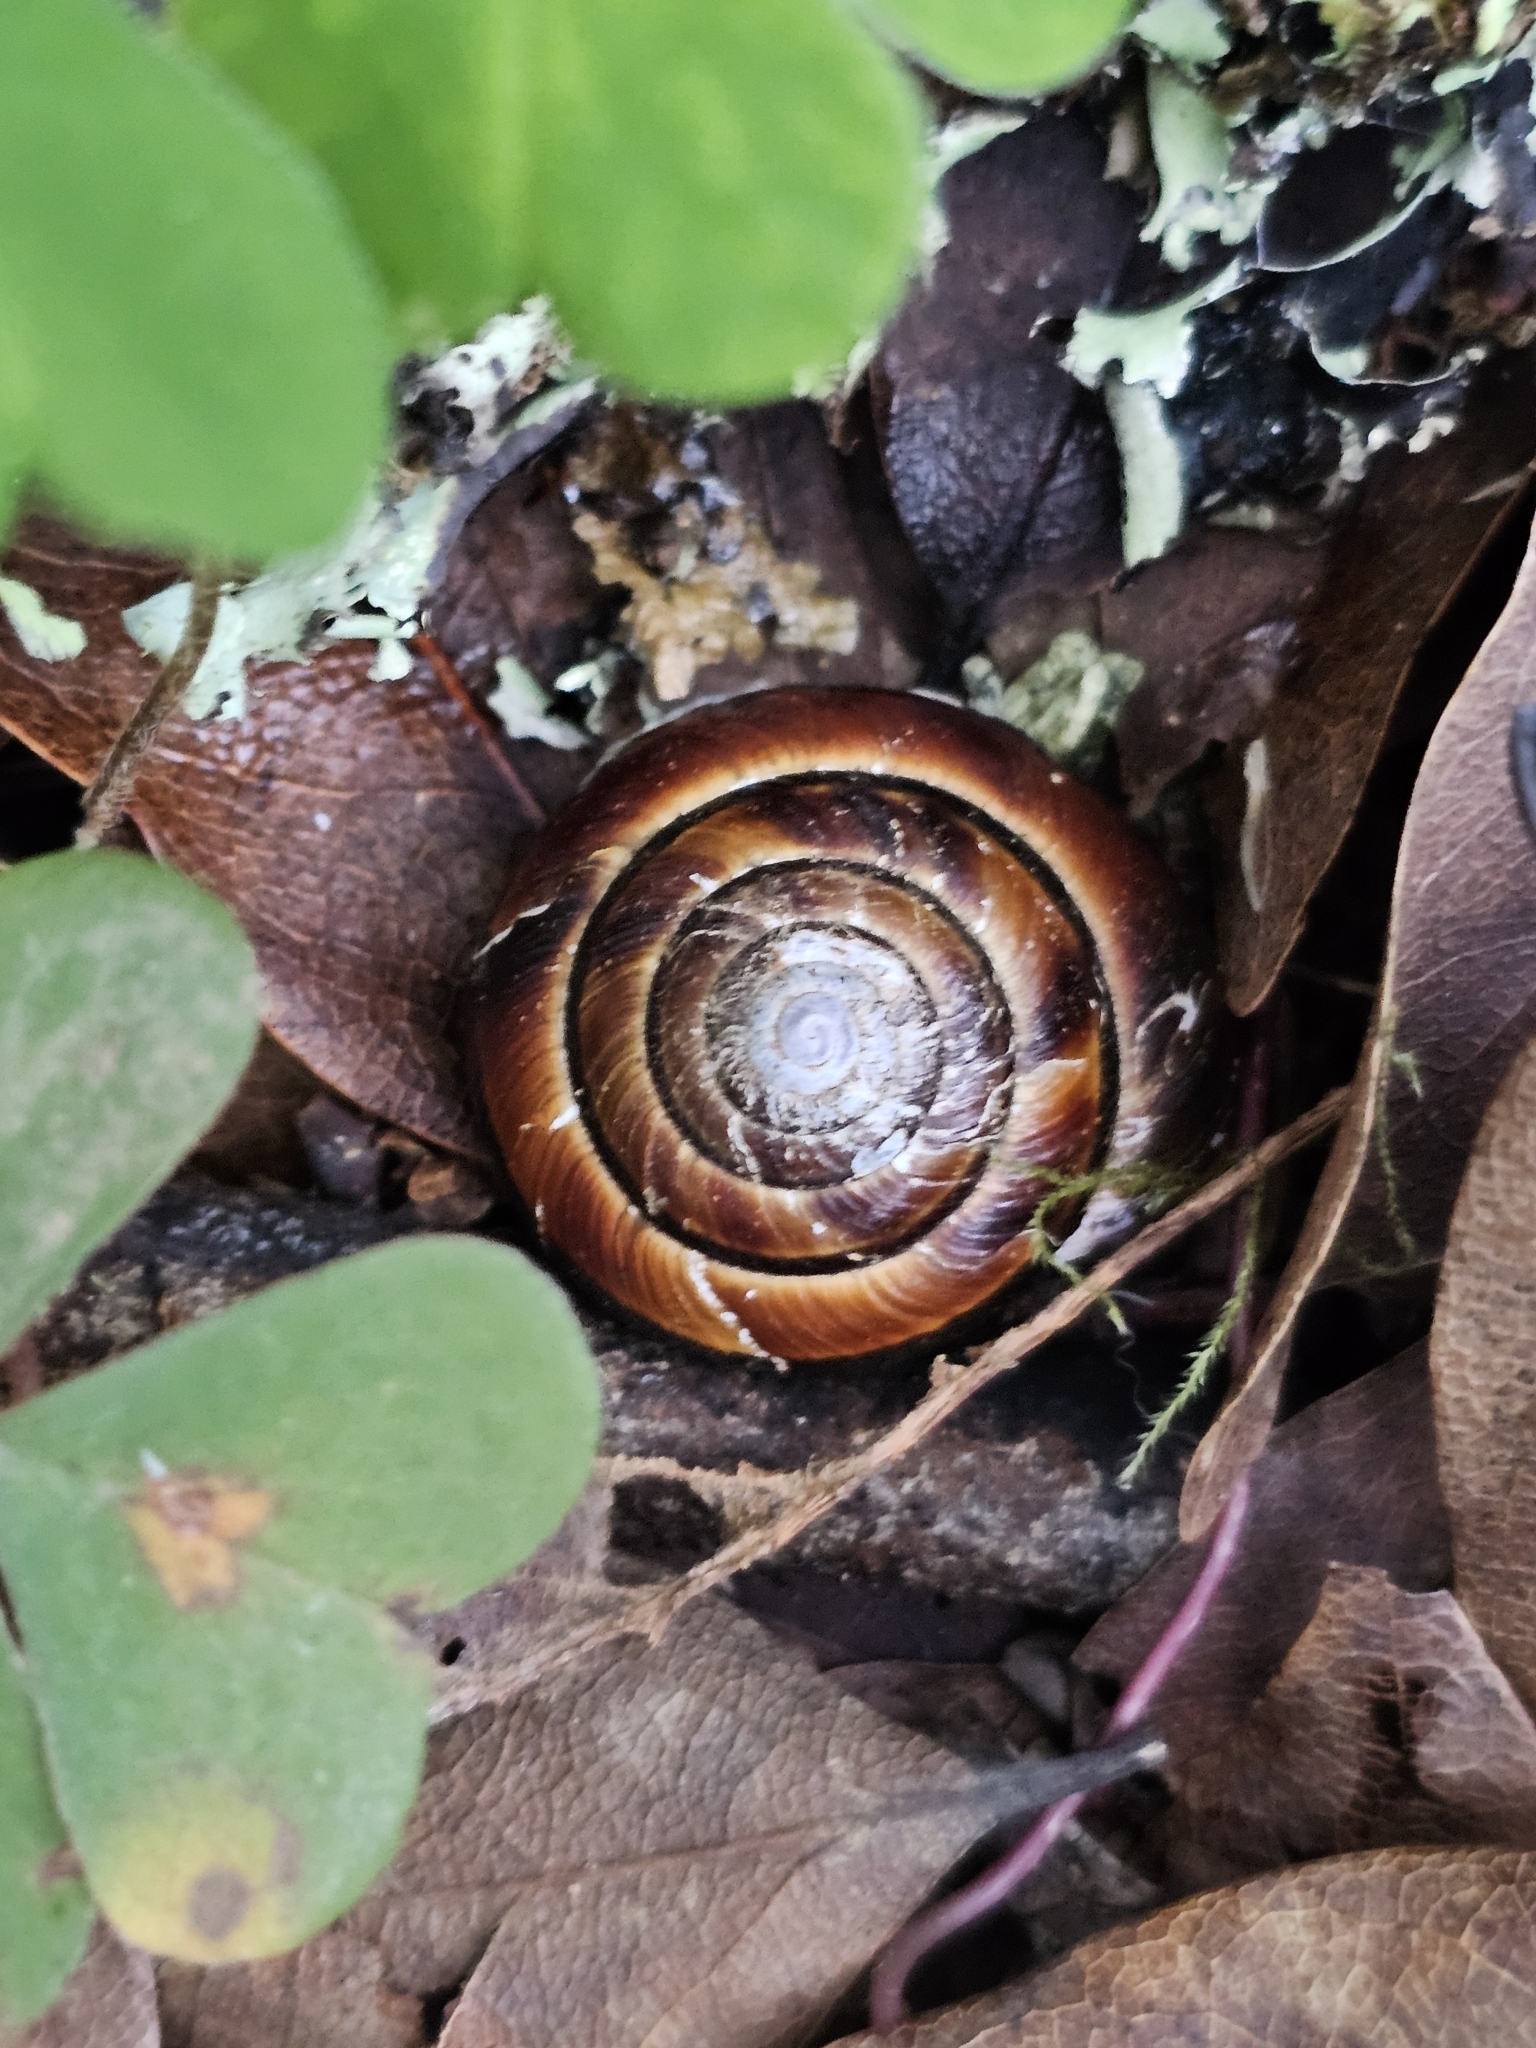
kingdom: Animalia
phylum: Mollusca
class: Gastropoda
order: Stylommatophora
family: Xanthonychidae
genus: Monadenia
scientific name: Monadenia fidelis
